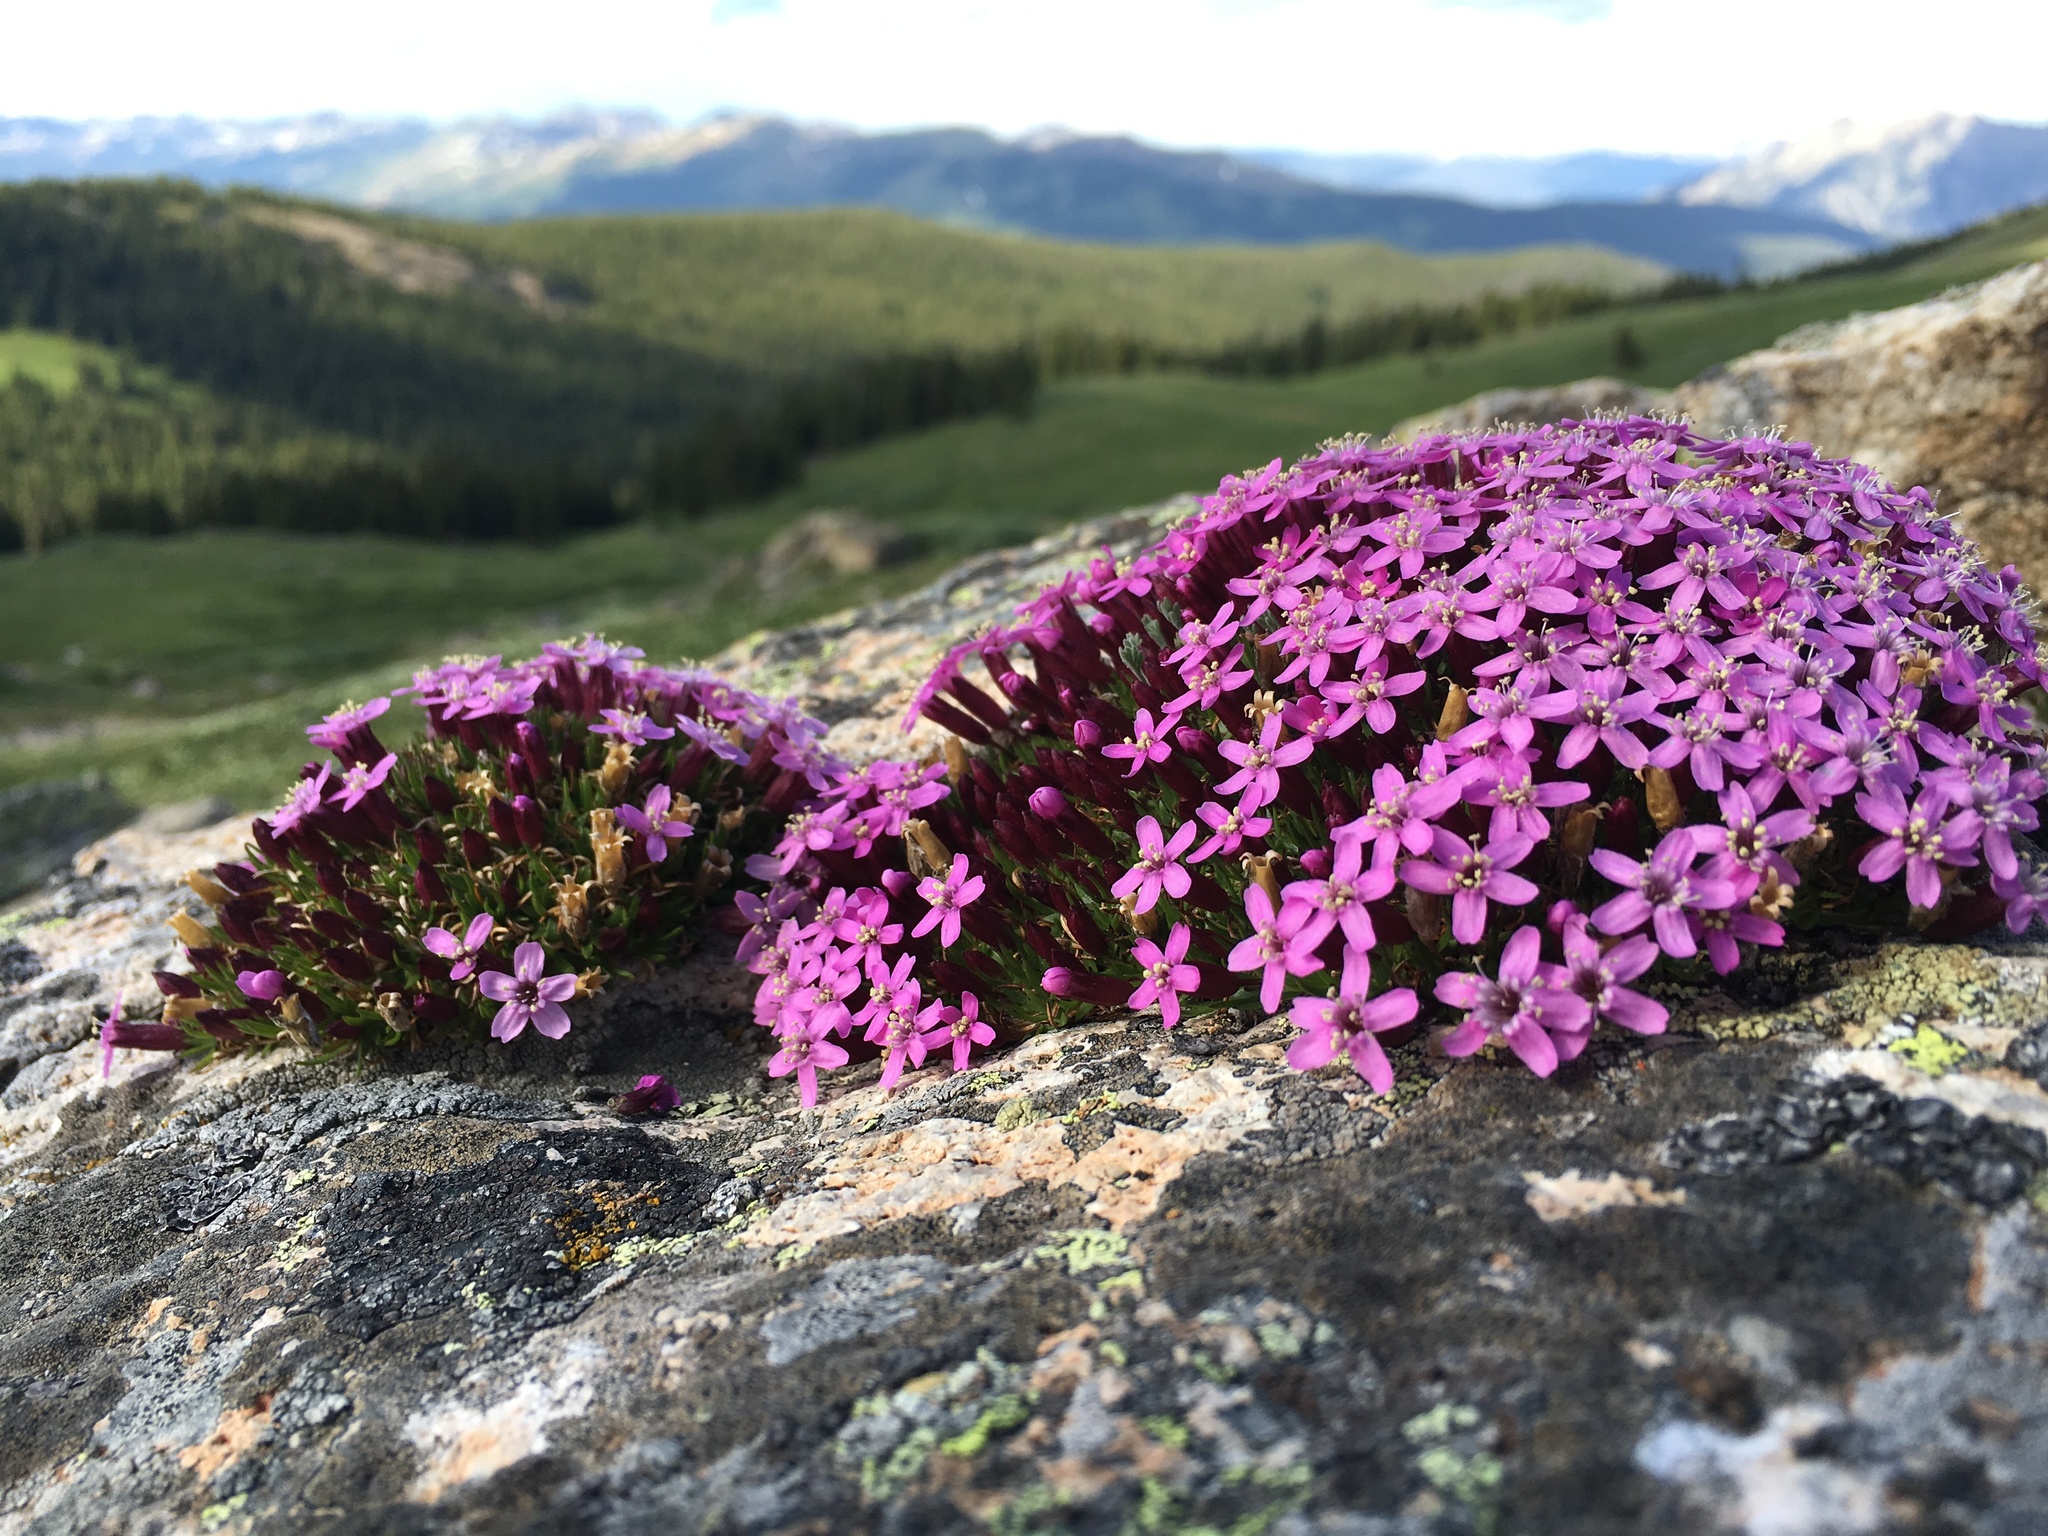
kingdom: Plantae
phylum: Tracheophyta
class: Magnoliopsida
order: Caryophyllales
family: Caryophyllaceae
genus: Silene
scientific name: Silene acaulis
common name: Moss campion
